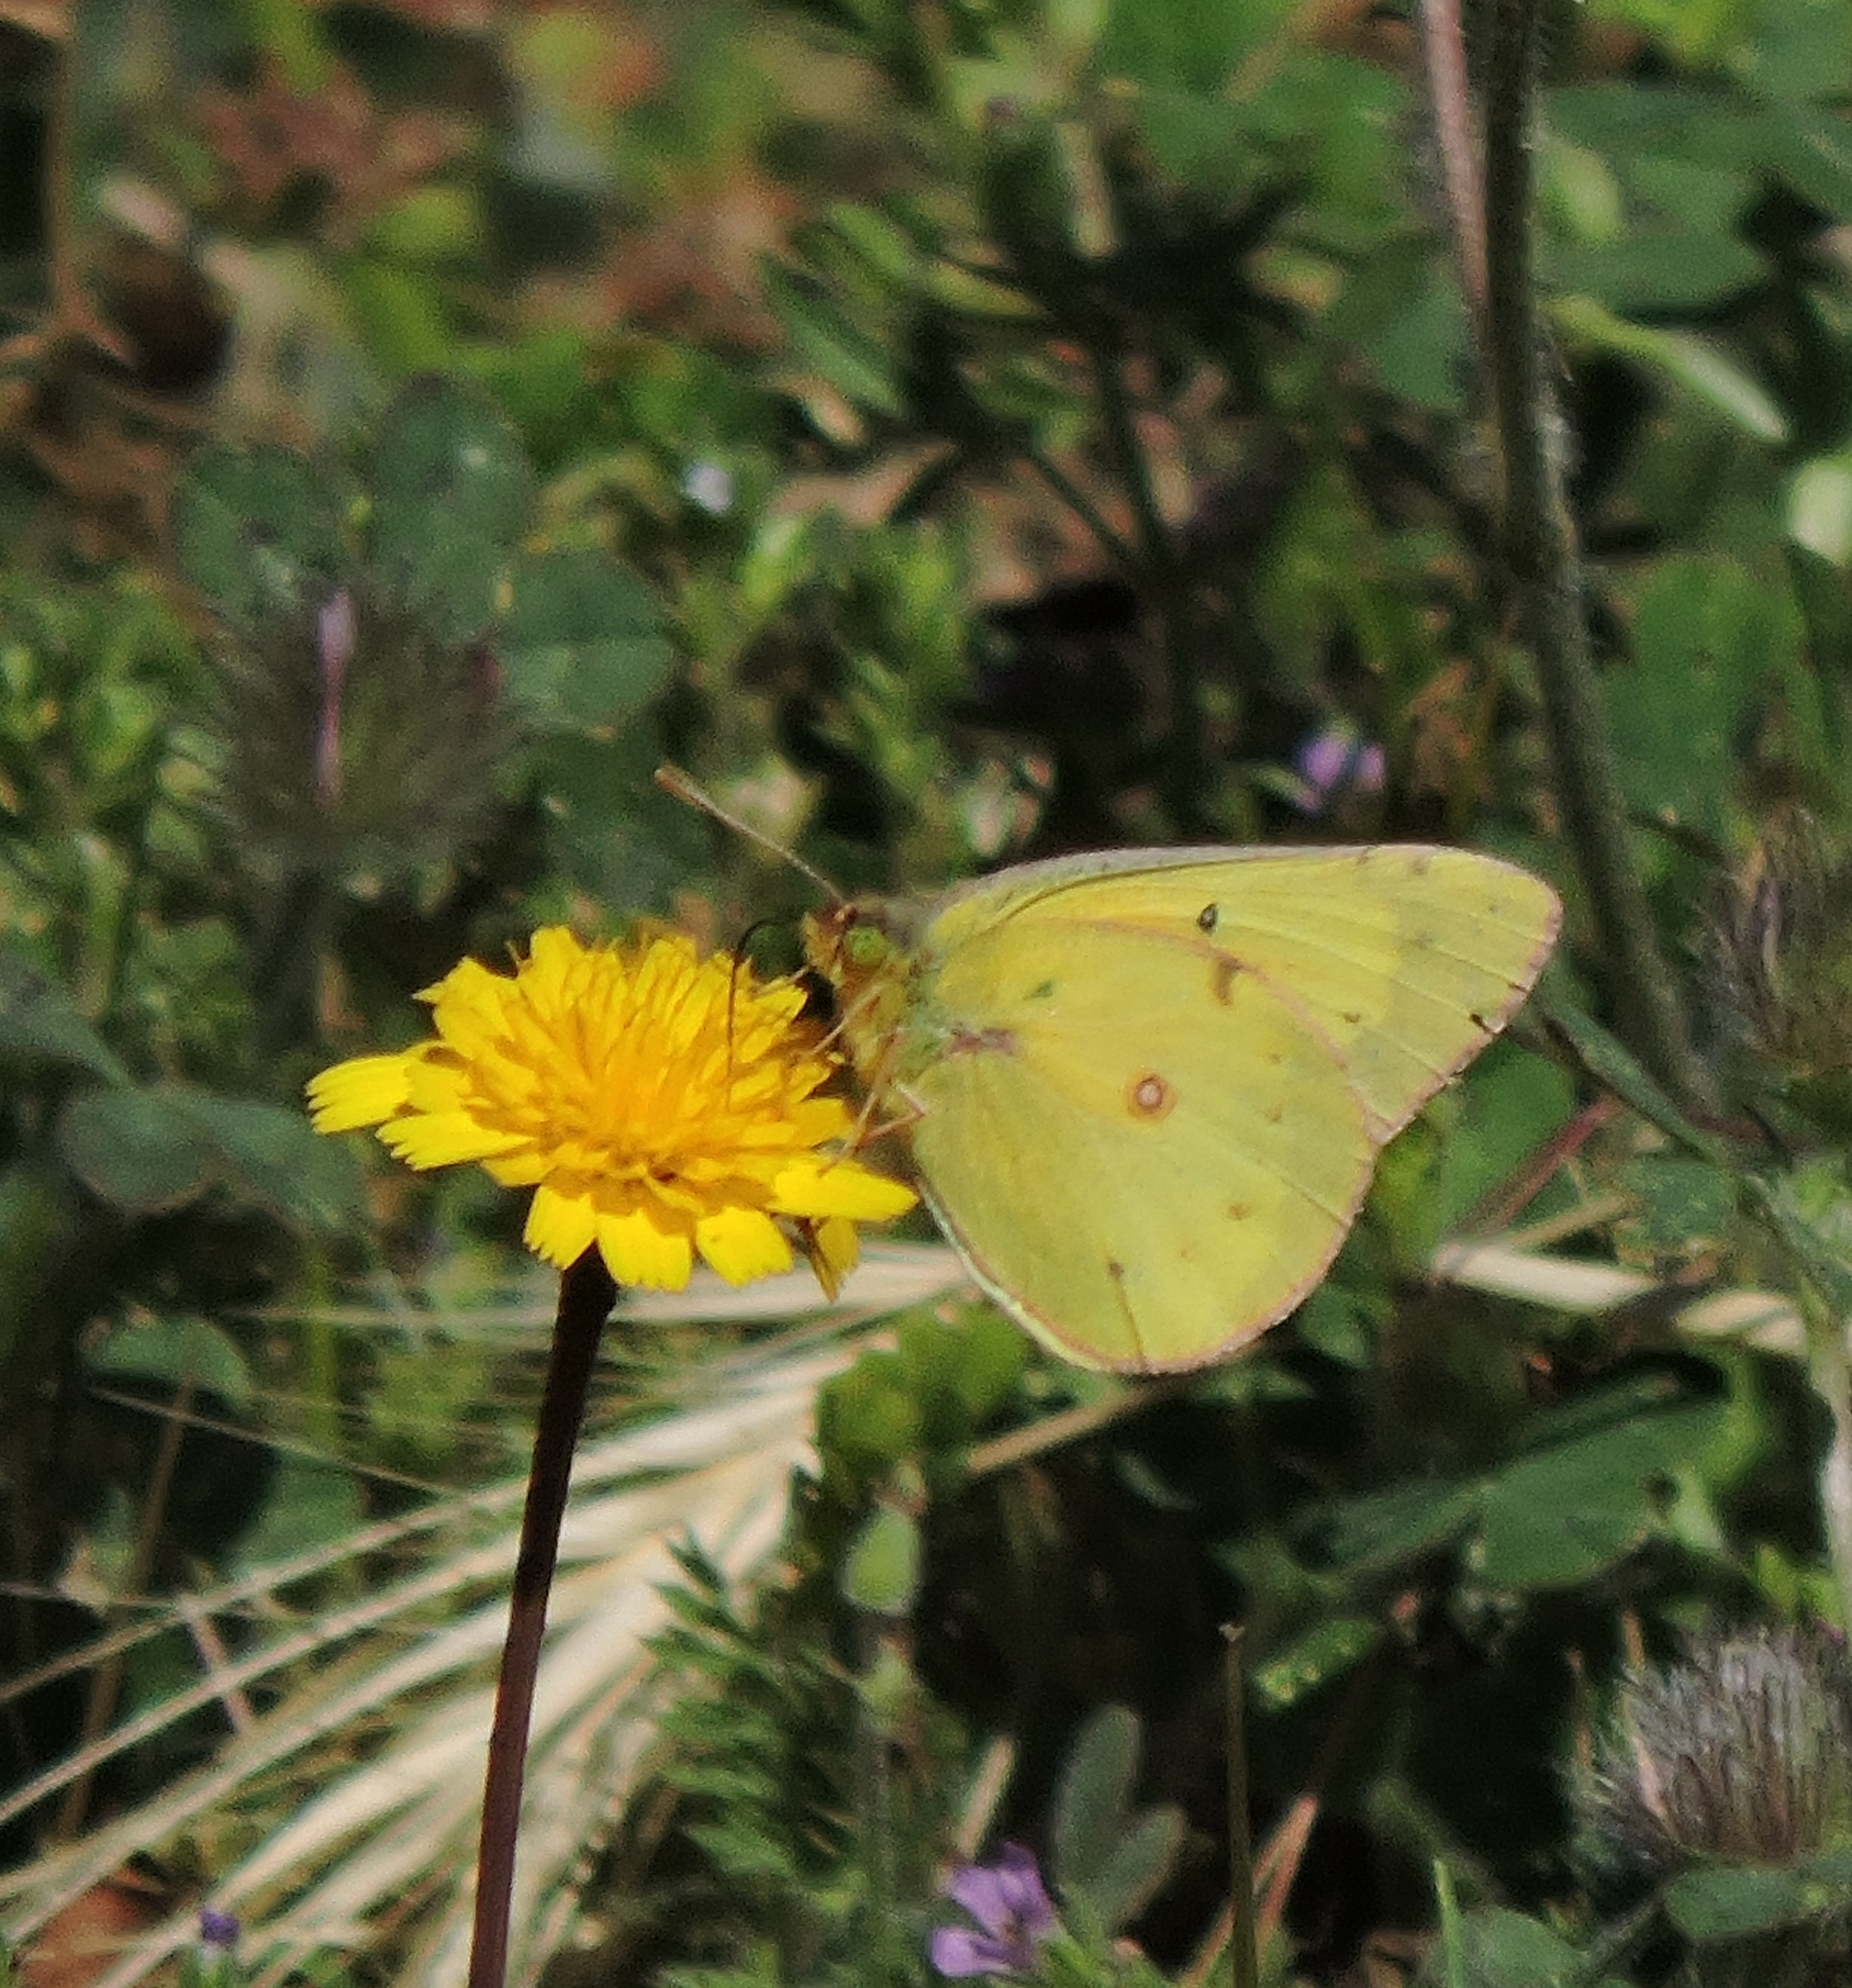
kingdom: Animalia
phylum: Arthropoda
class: Insecta
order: Lepidoptera
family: Pieridae
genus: Colias
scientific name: Colias eurytheme
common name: Alfalfa butterfly
